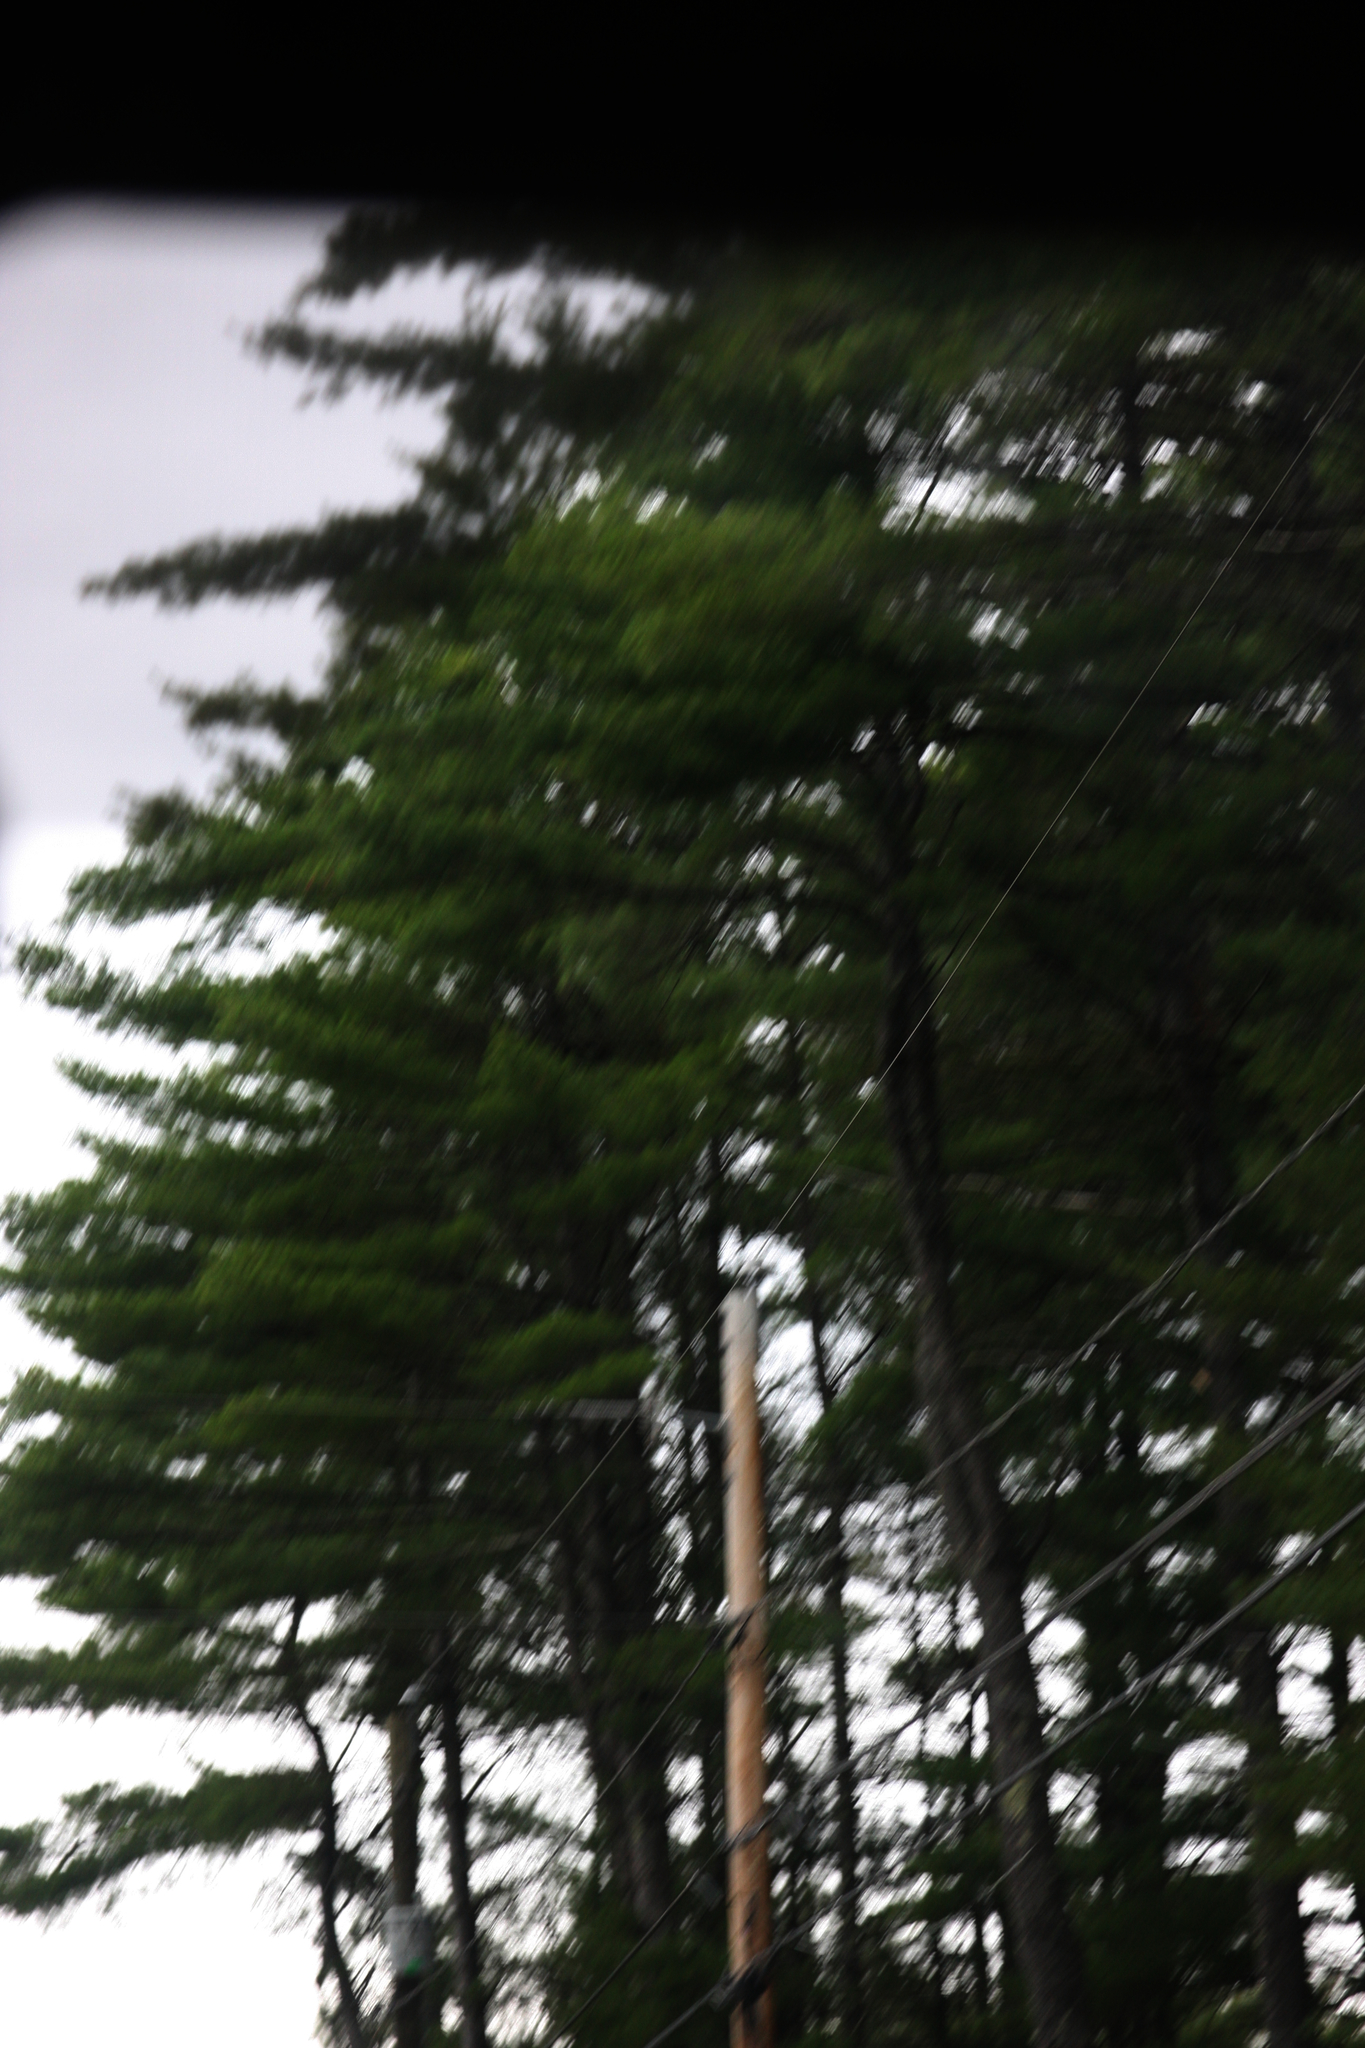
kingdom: Plantae
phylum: Tracheophyta
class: Pinopsida
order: Pinales
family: Pinaceae
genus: Pinus
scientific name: Pinus strobus
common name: Weymouth pine
